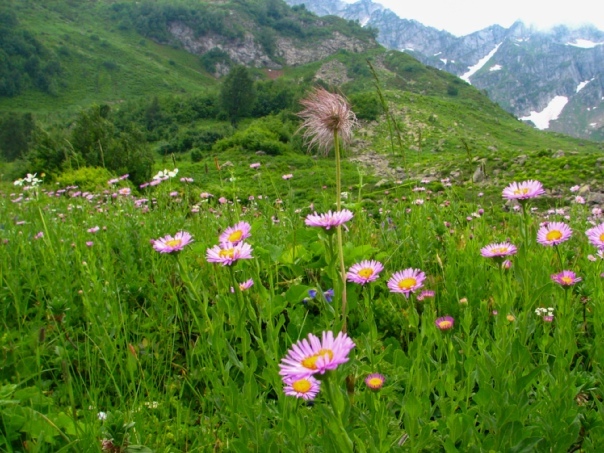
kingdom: Plantae
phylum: Tracheophyta
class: Magnoliopsida
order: Asterales
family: Asteraceae
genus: Kemulariella
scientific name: Kemulariella caucasica
